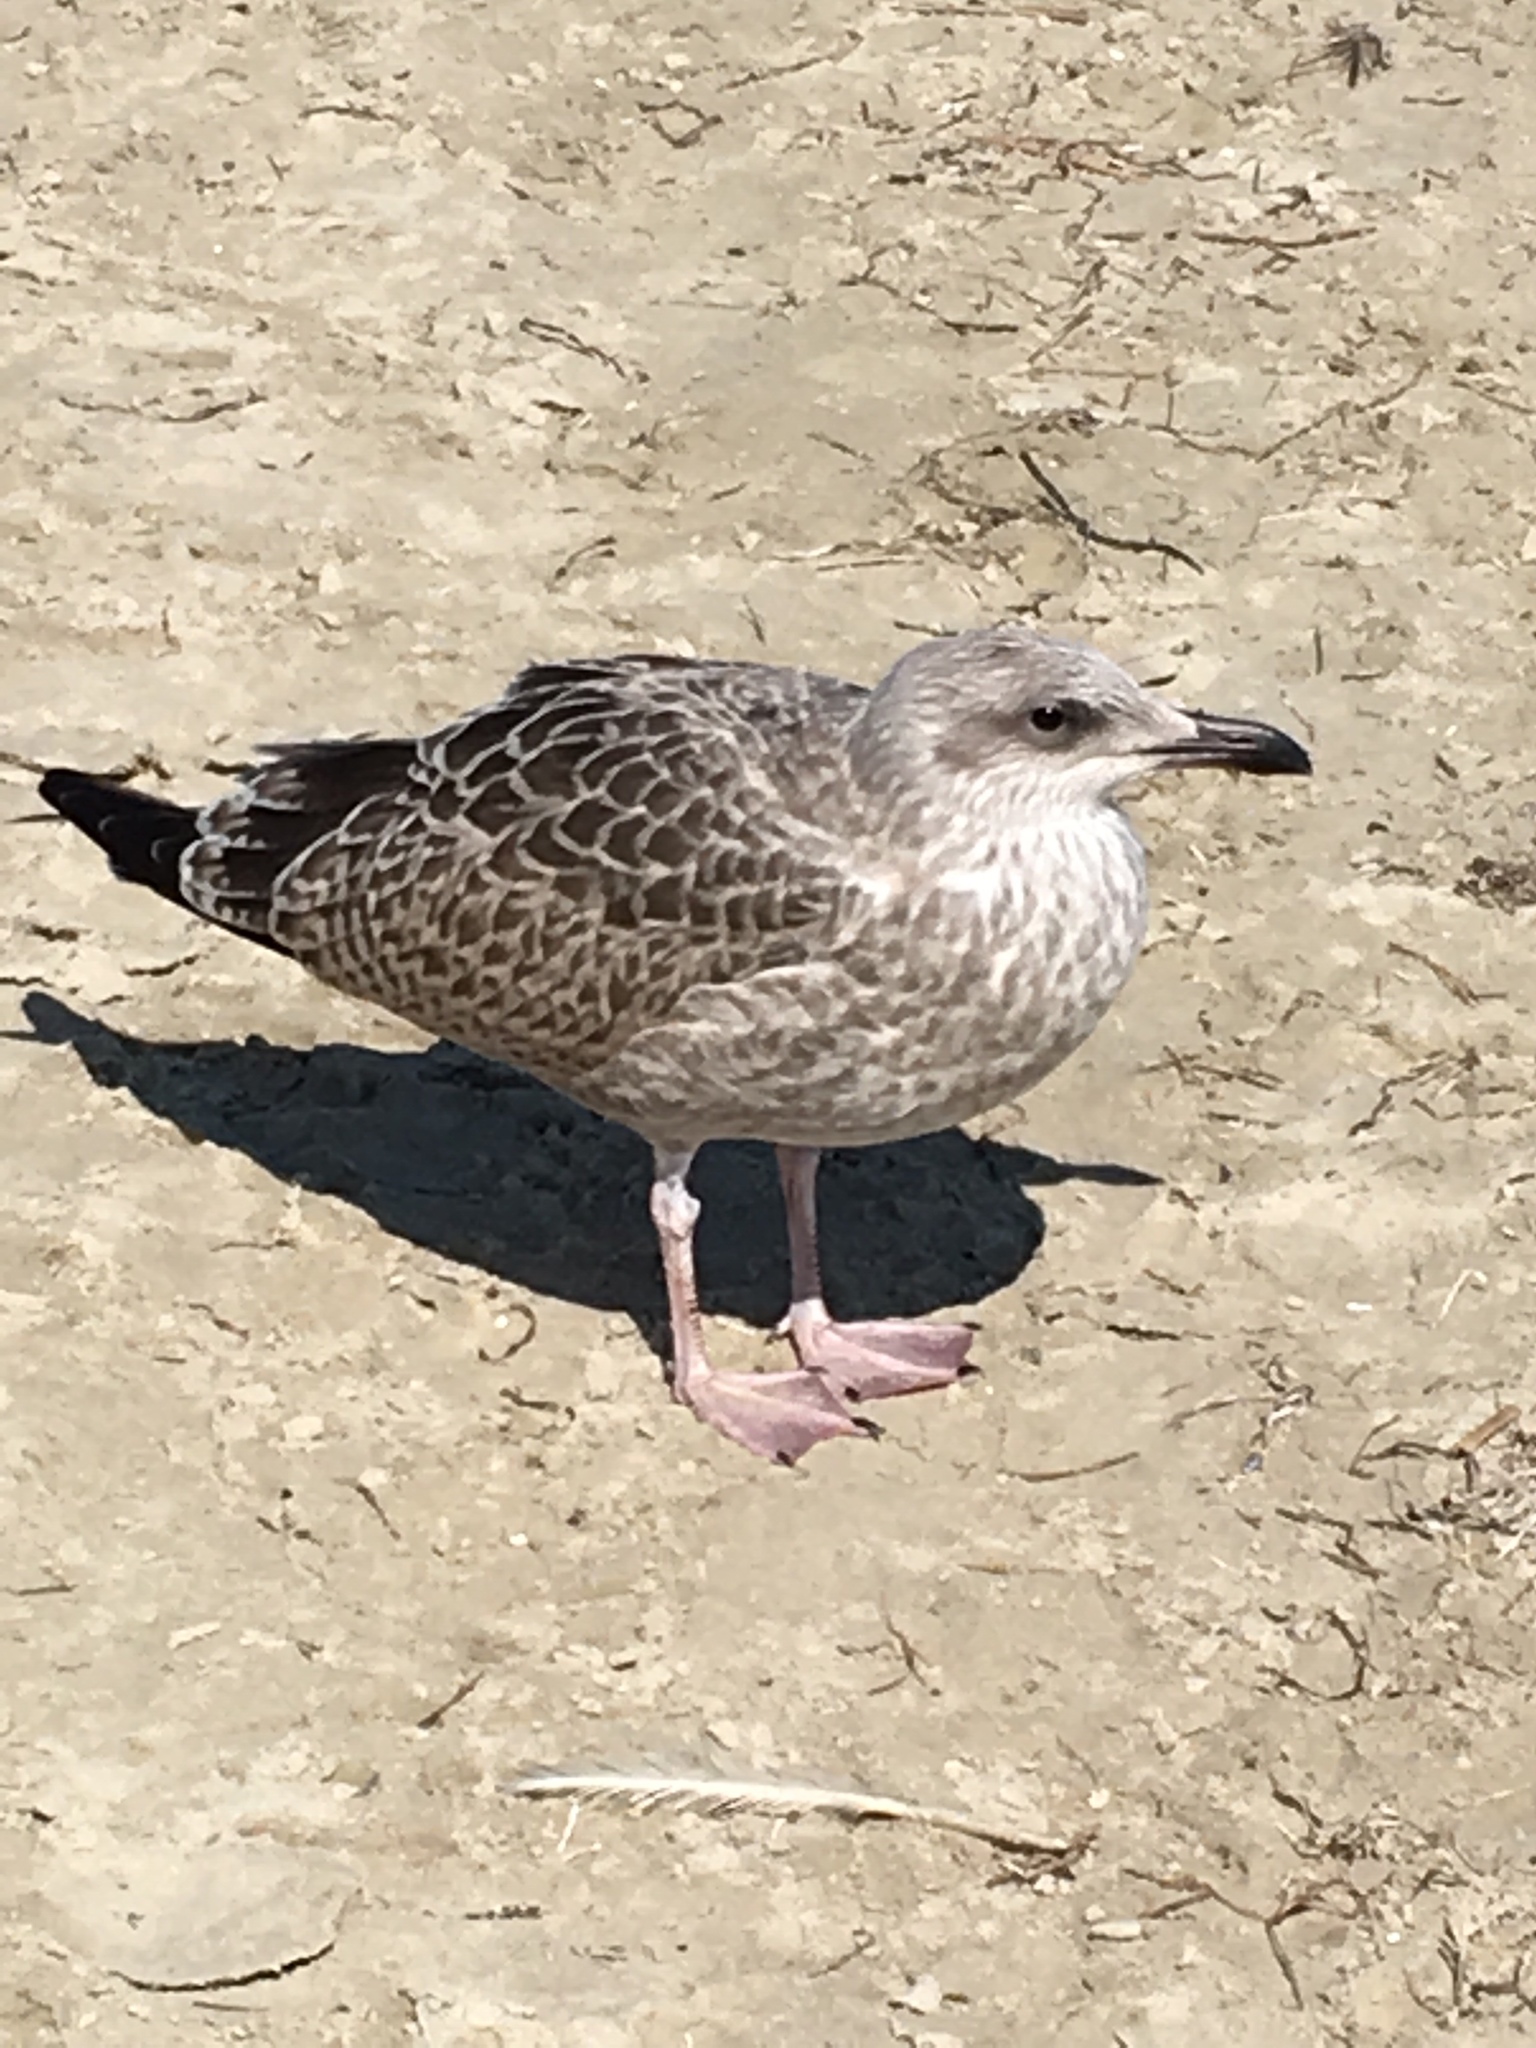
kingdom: Animalia
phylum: Chordata
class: Aves
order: Charadriiformes
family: Laridae
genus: Larus
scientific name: Larus argentatus
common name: Herring gull
